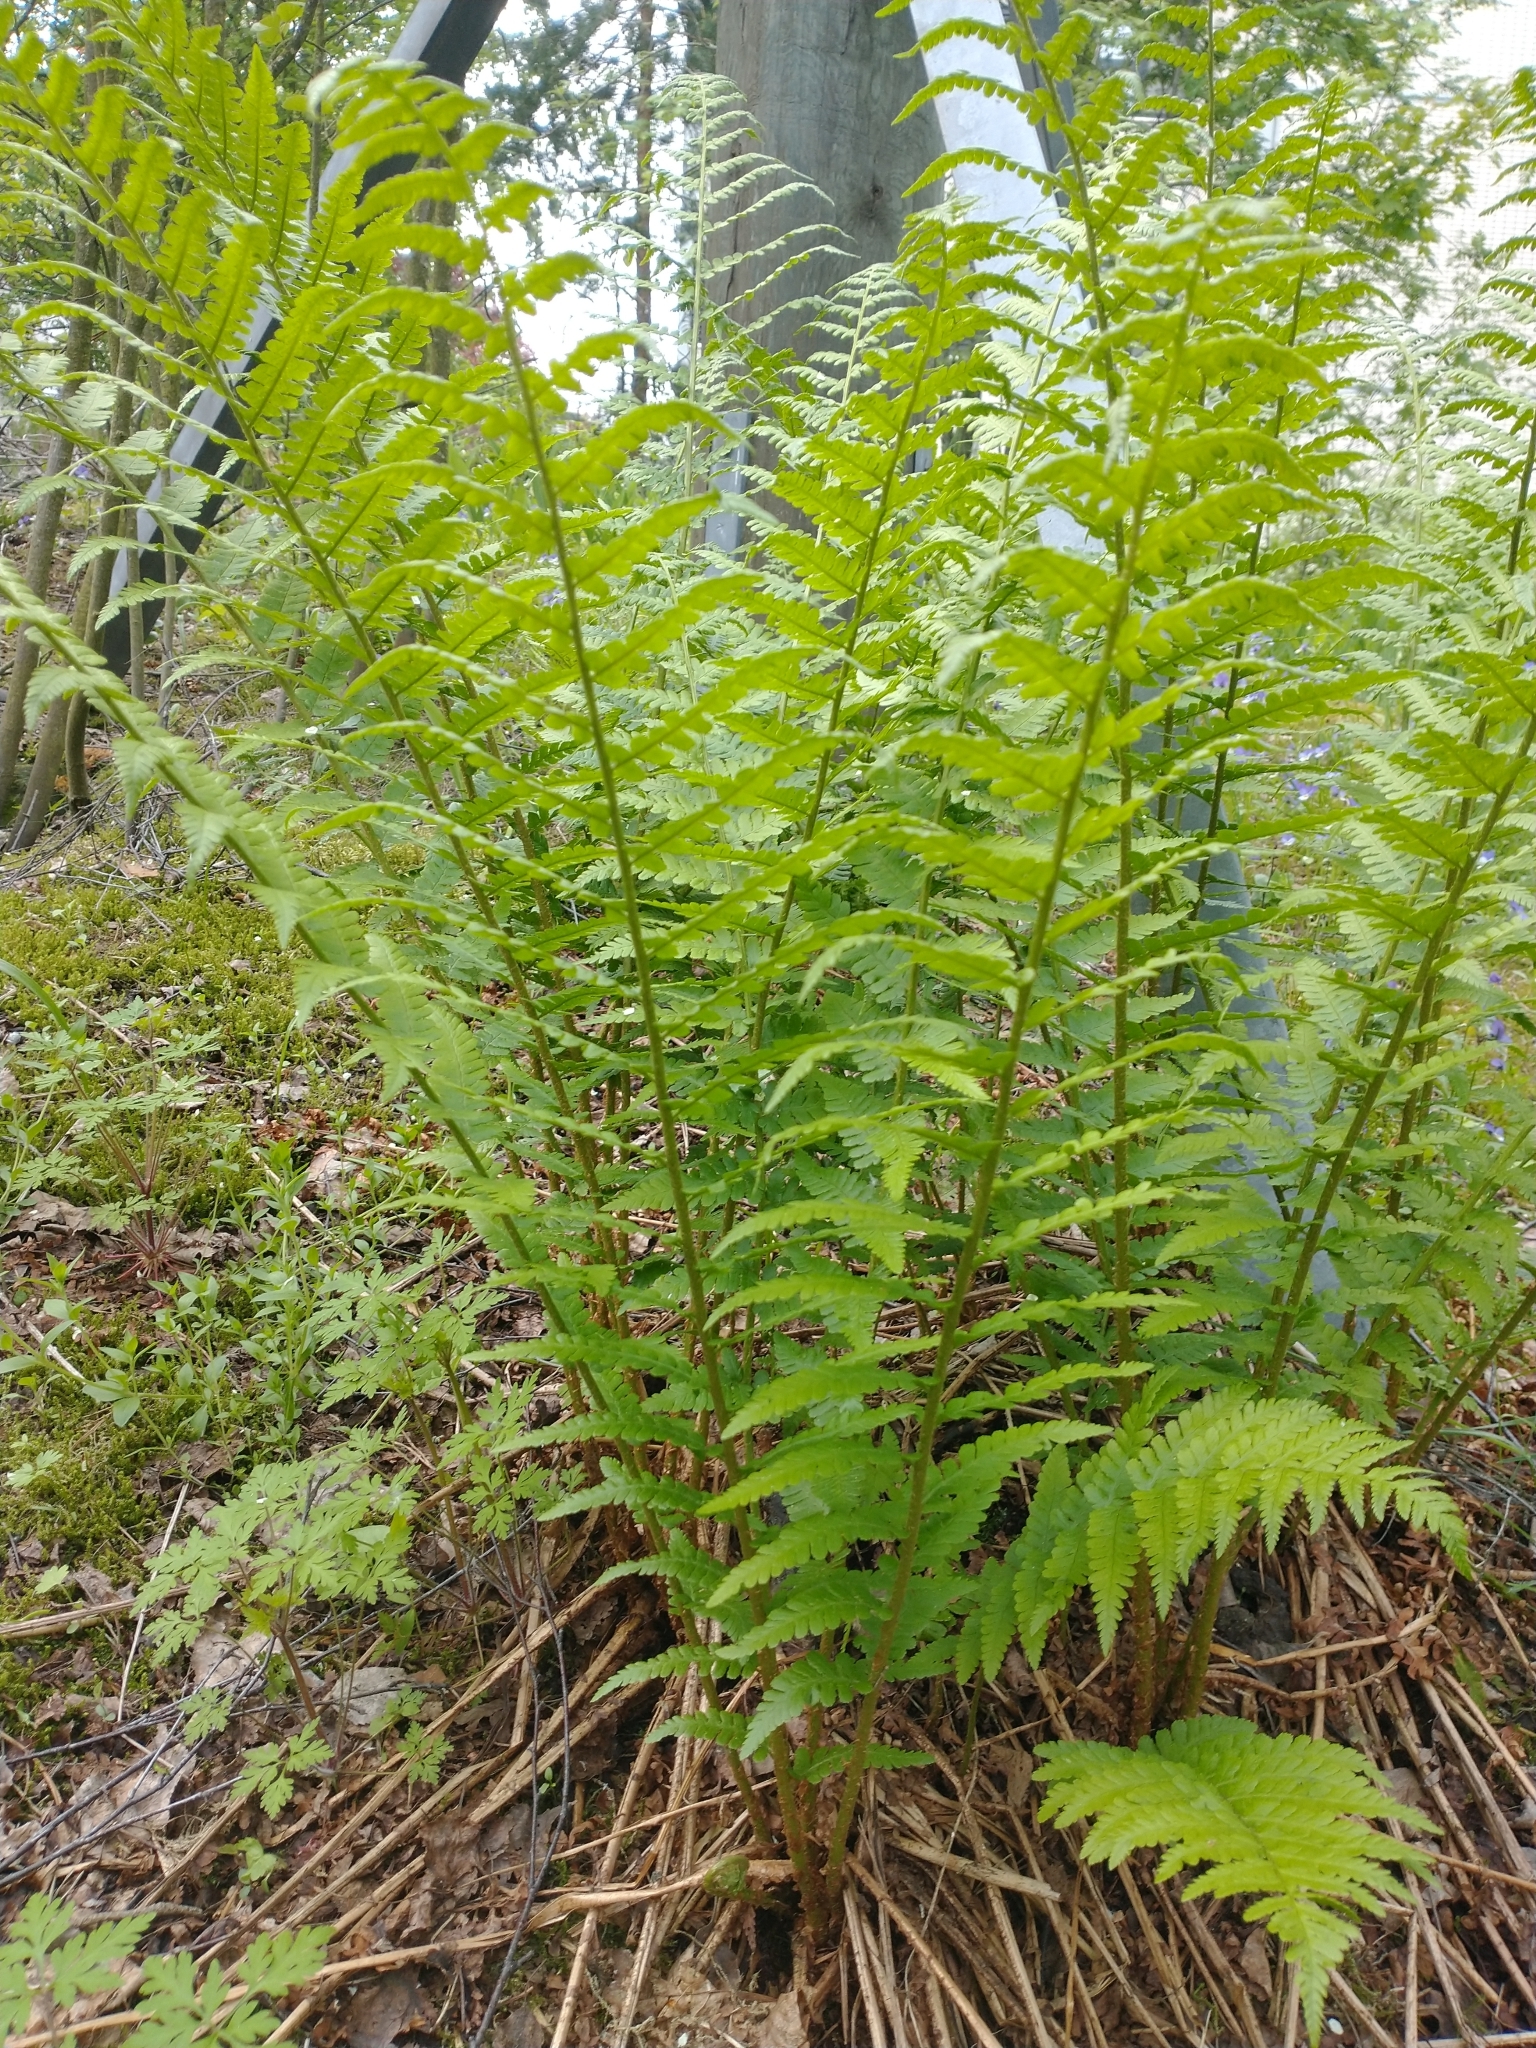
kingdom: Plantae
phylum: Tracheophyta
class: Polypodiopsida
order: Polypodiales
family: Dryopteridaceae
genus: Dryopteris
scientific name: Dryopteris filix-mas
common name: Male fern
